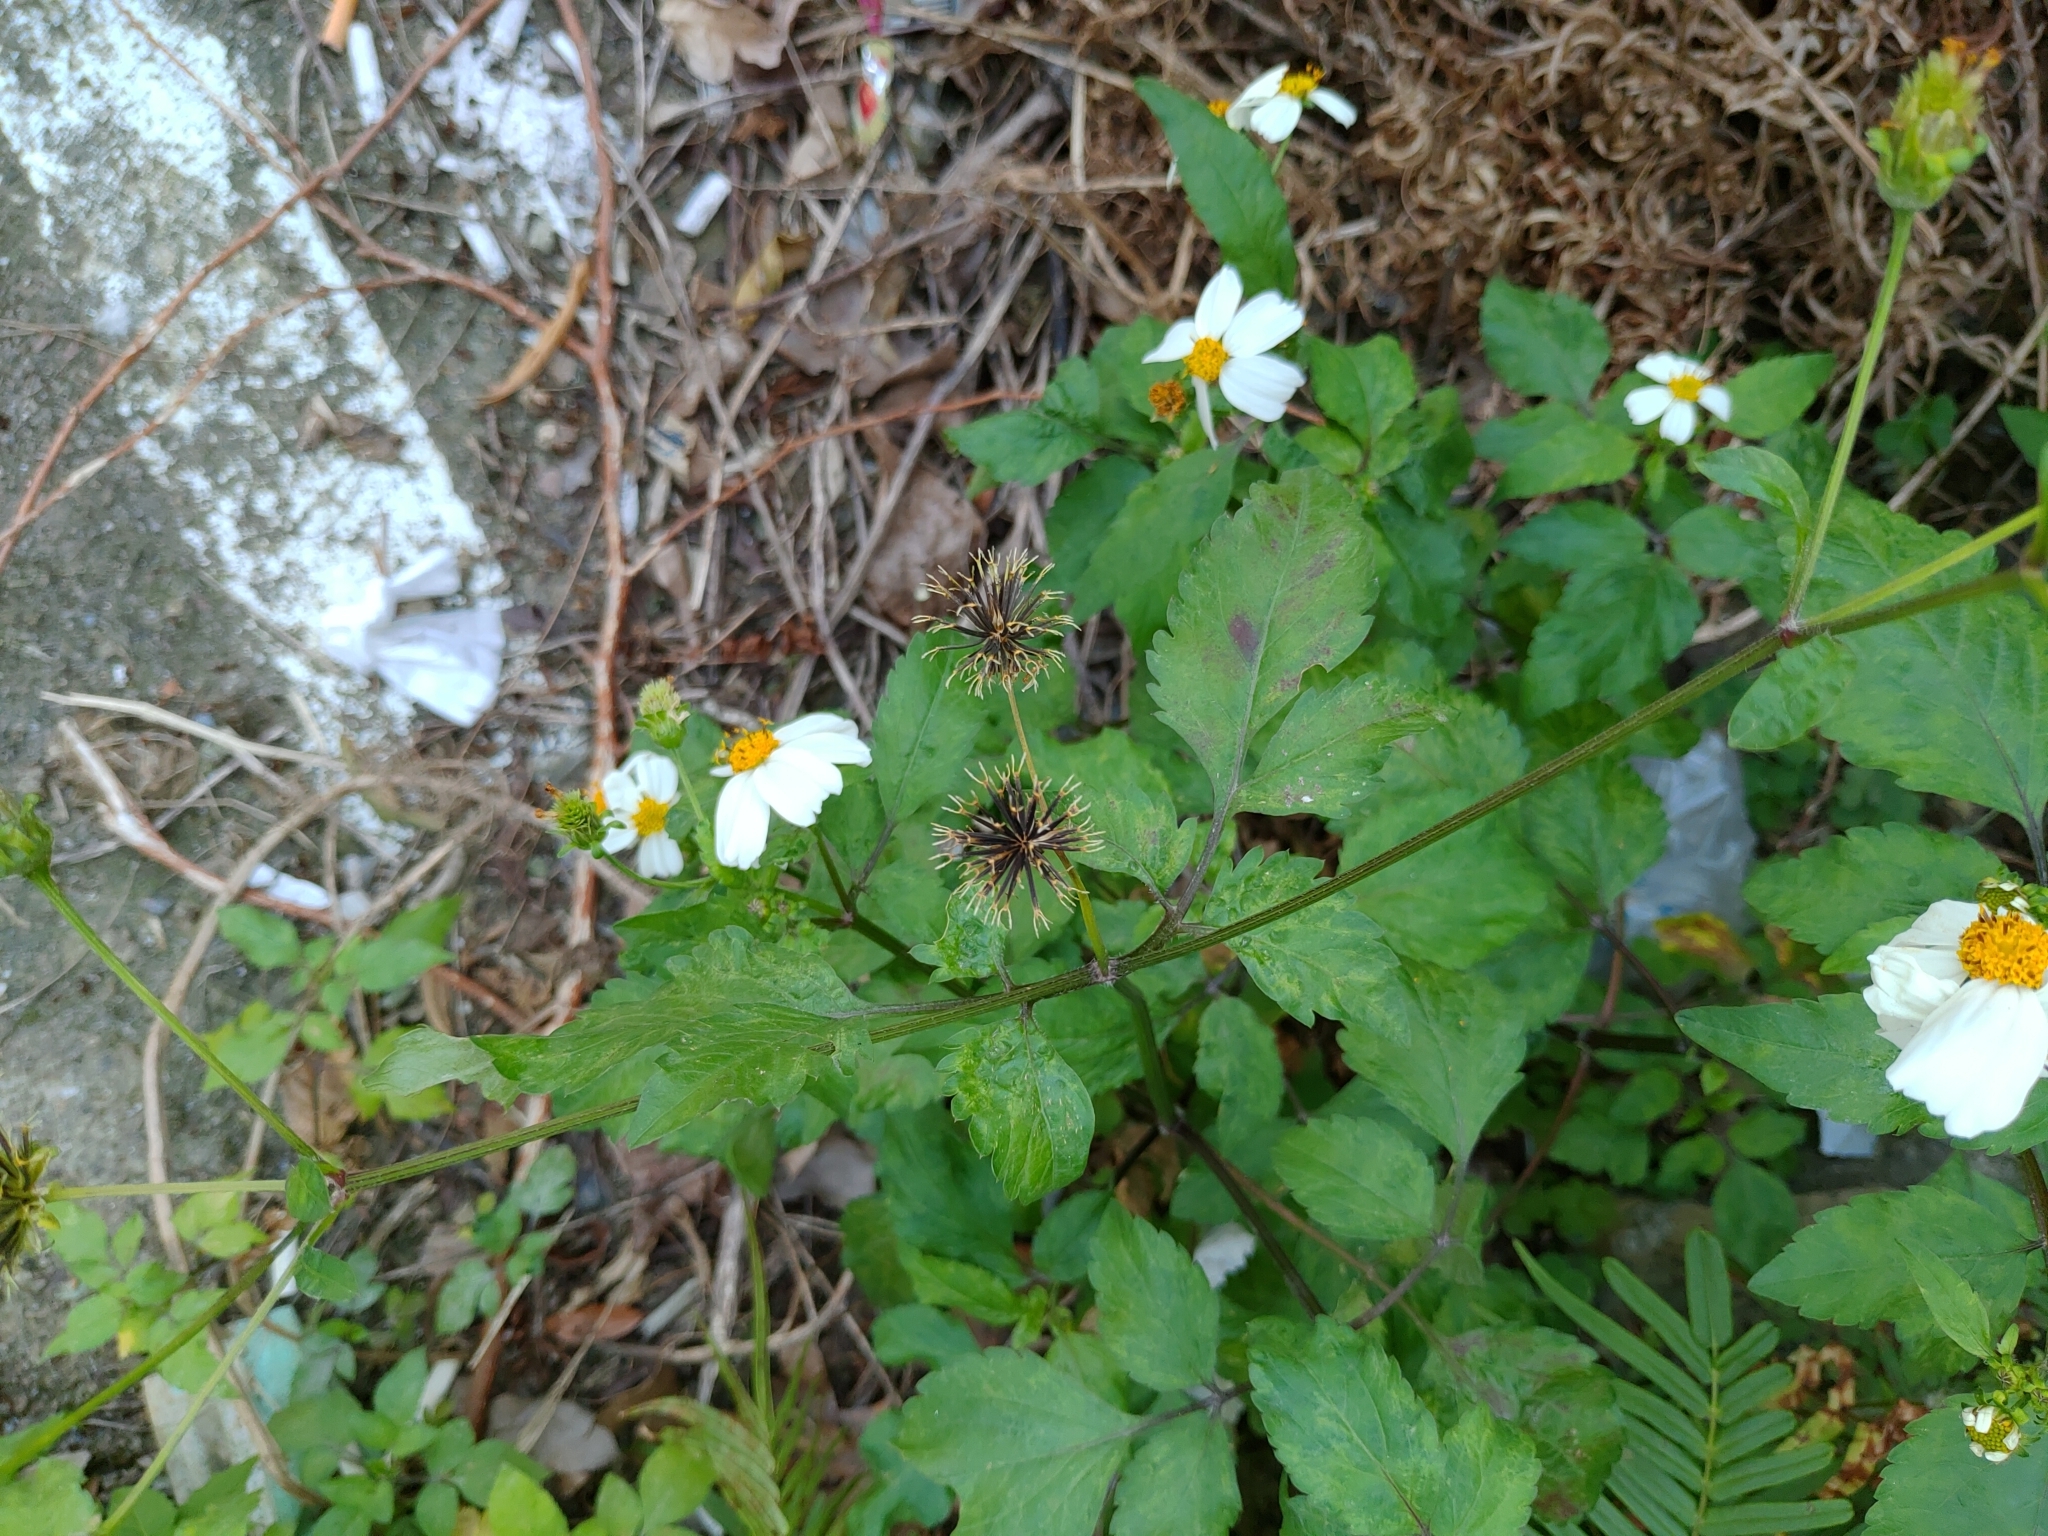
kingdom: Plantae
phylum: Tracheophyta
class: Magnoliopsida
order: Asterales
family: Asteraceae
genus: Bidens
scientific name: Bidens alba
